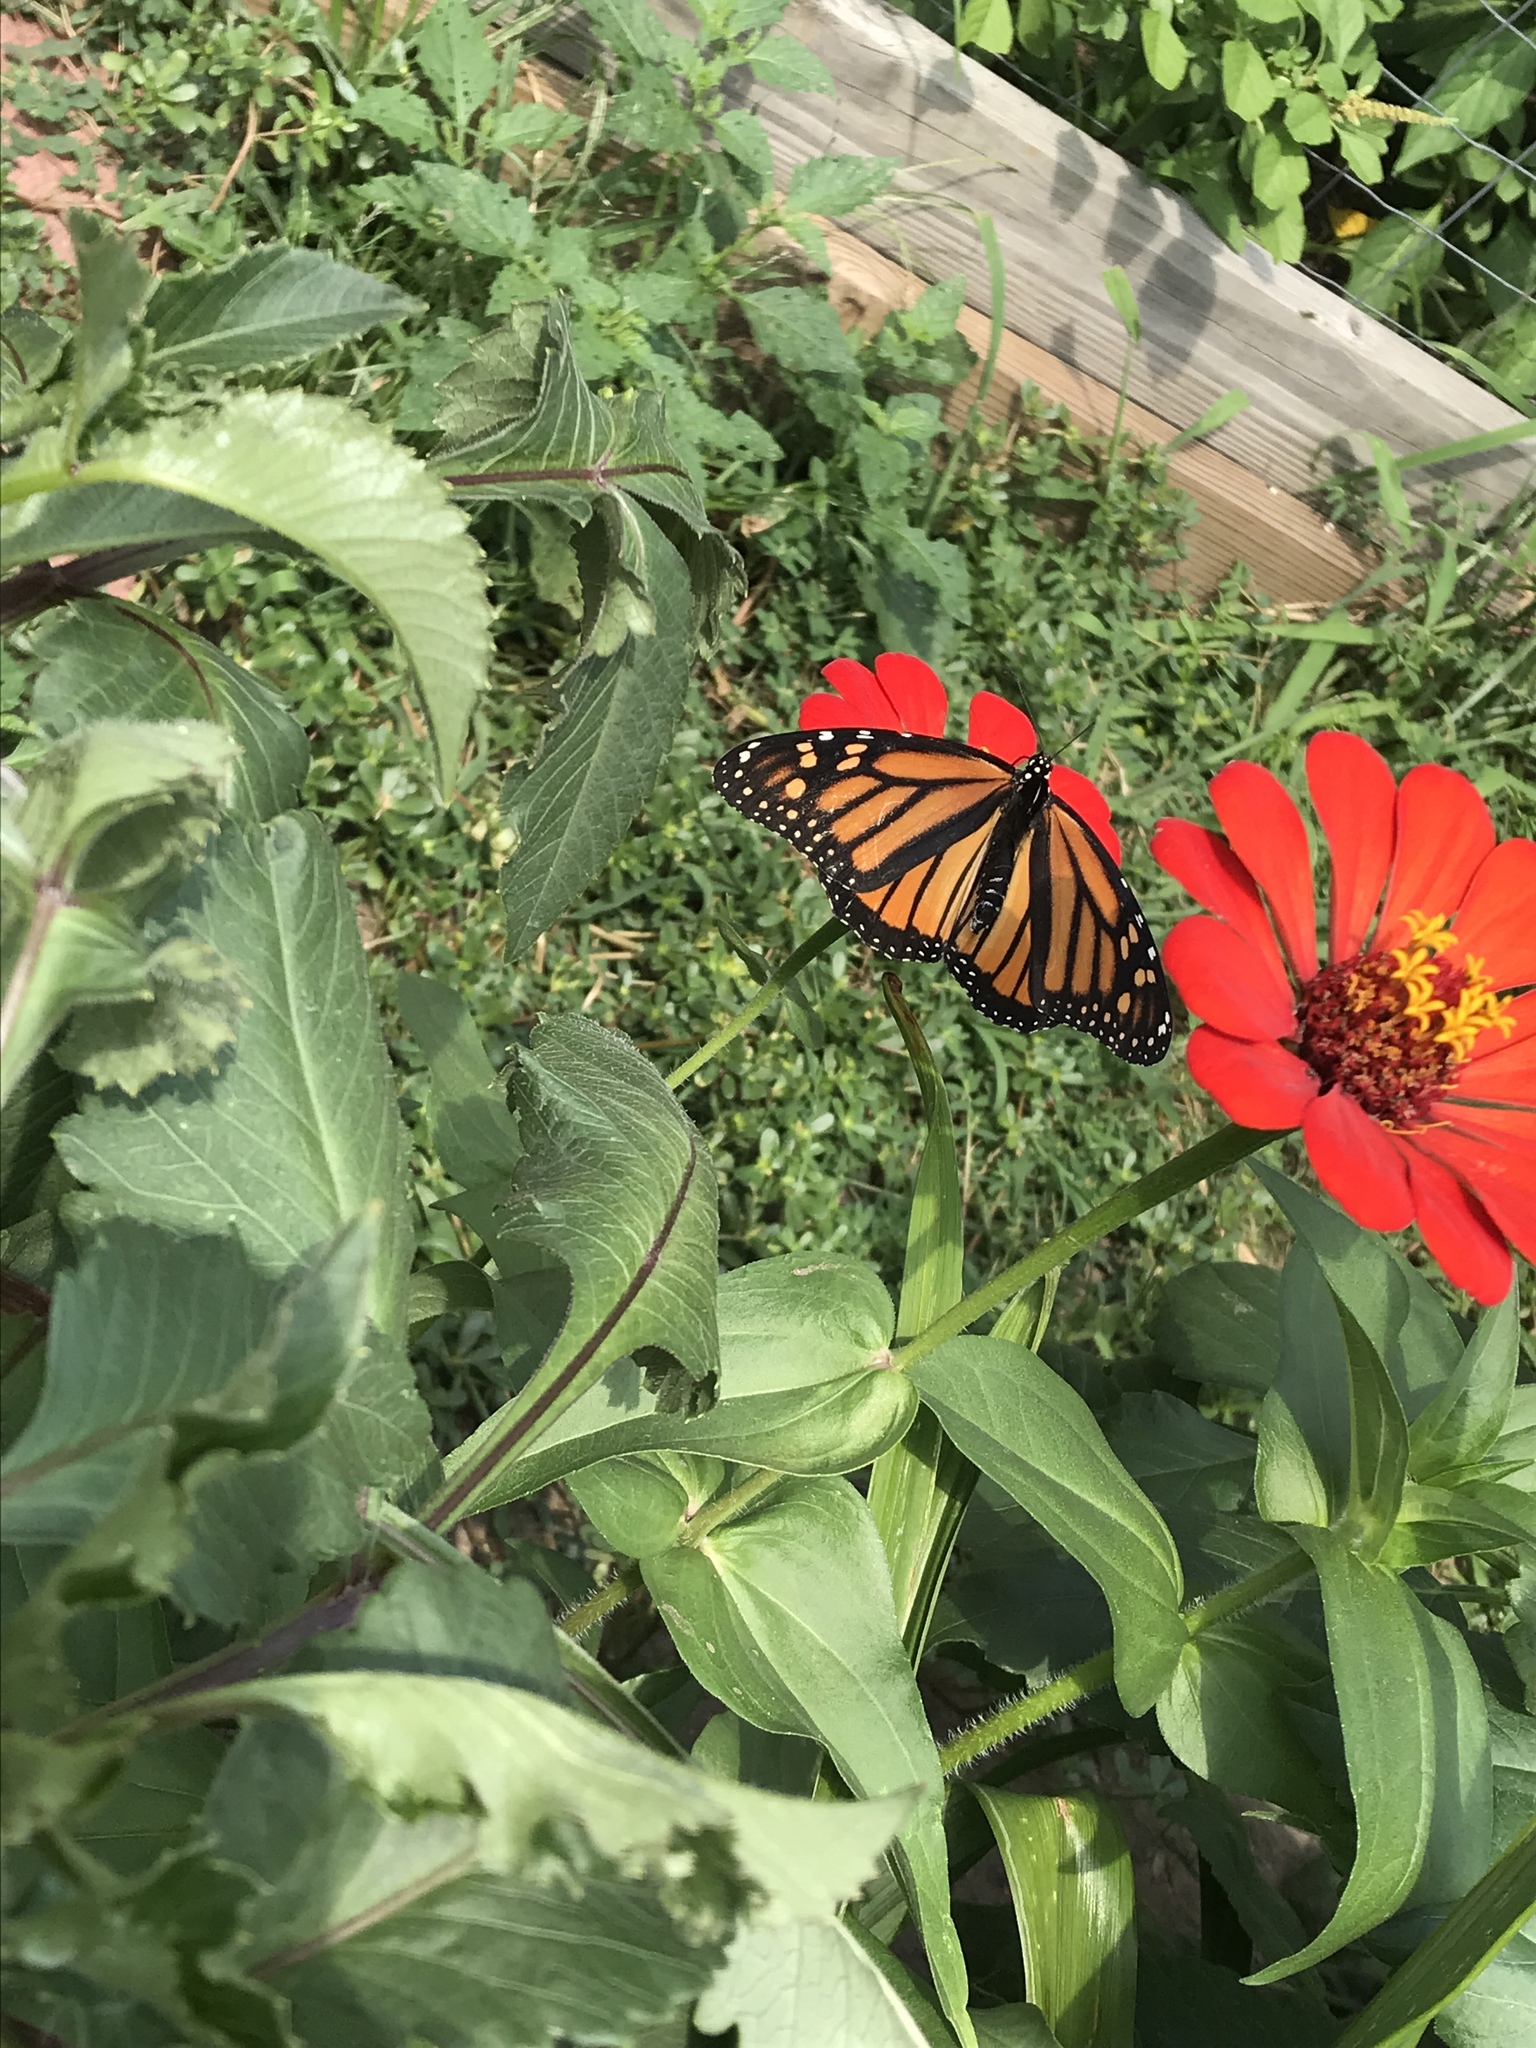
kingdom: Animalia
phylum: Arthropoda
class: Insecta
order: Lepidoptera
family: Nymphalidae
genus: Danaus
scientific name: Danaus plexippus
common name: Monarch
